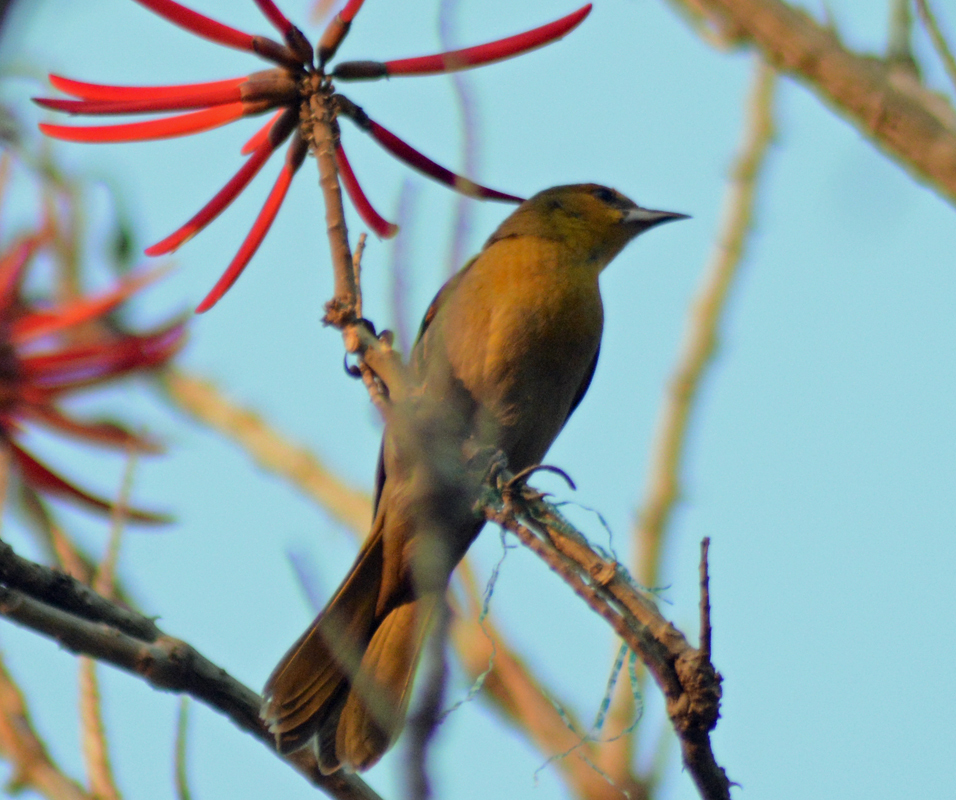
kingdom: Animalia
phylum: Chordata
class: Aves
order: Passeriformes
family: Icteridae
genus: Icterus
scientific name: Icterus abeillei
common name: Black-backed oriole
